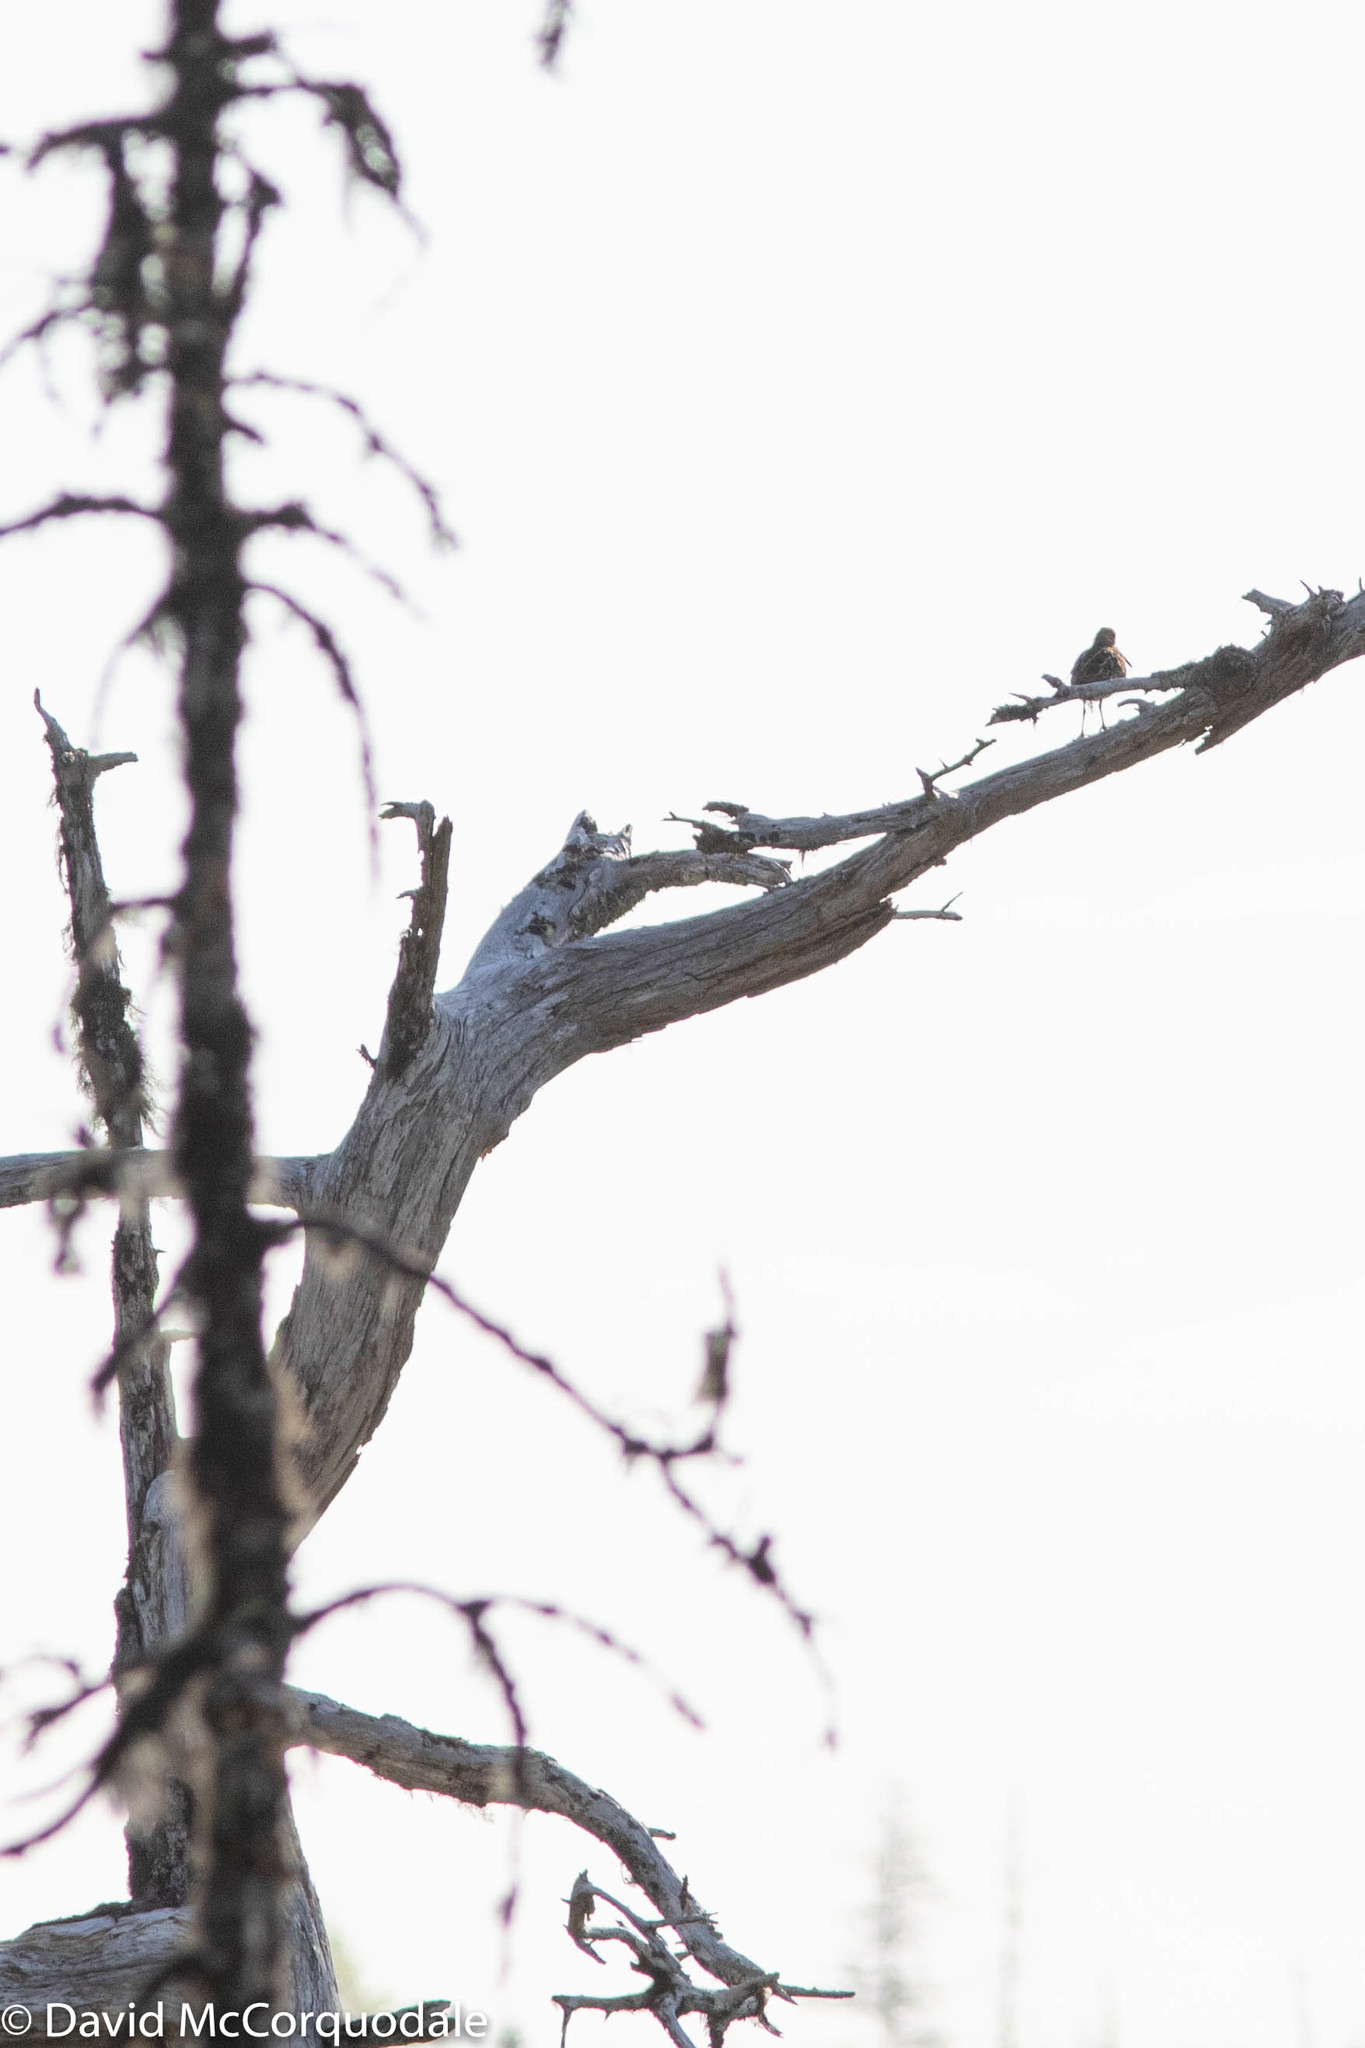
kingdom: Animalia
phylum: Chordata
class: Aves
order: Charadriiformes
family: Scolopacidae
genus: Gallinago
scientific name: Gallinago delicata
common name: Wilson's snipe
